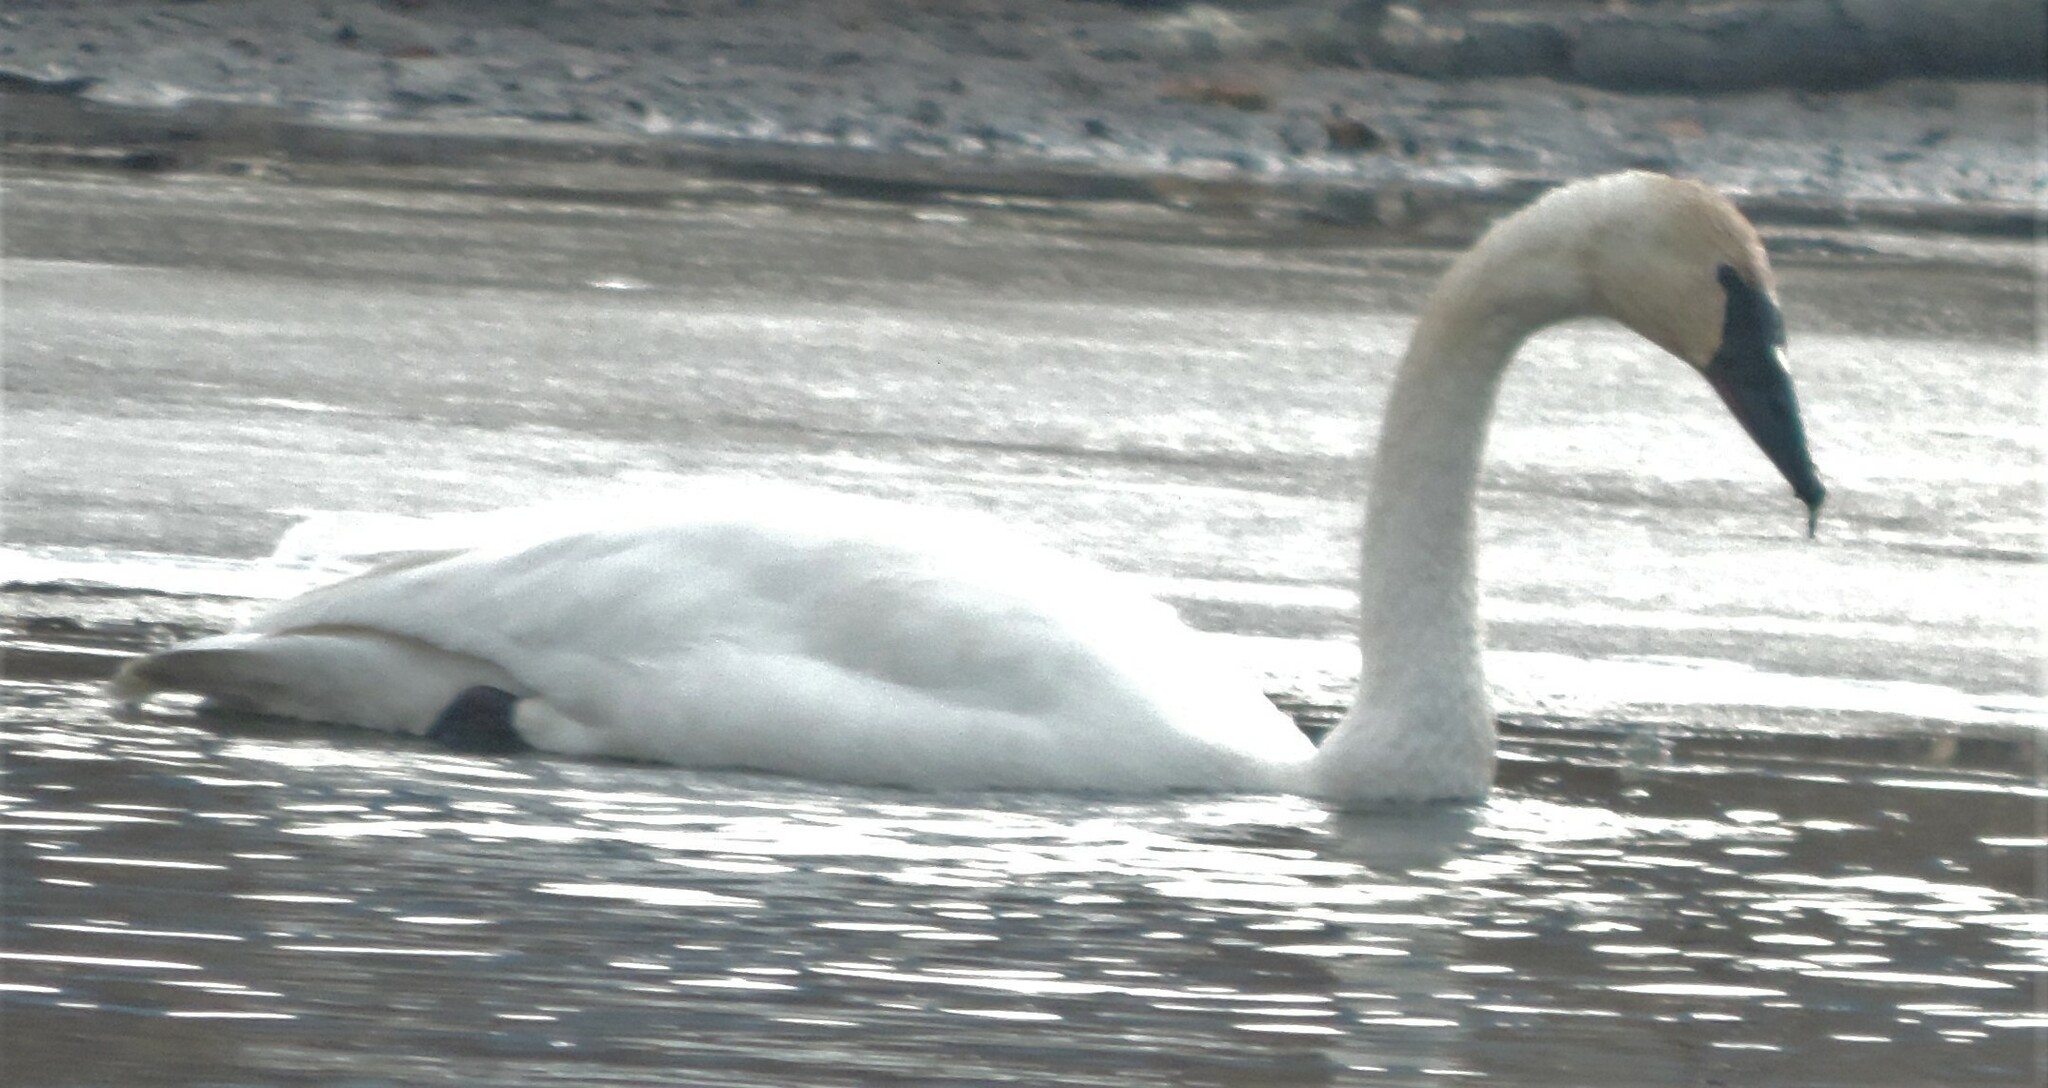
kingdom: Animalia
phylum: Chordata
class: Aves
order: Anseriformes
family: Anatidae
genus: Cygnus
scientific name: Cygnus buccinator
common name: Trumpeter swan
